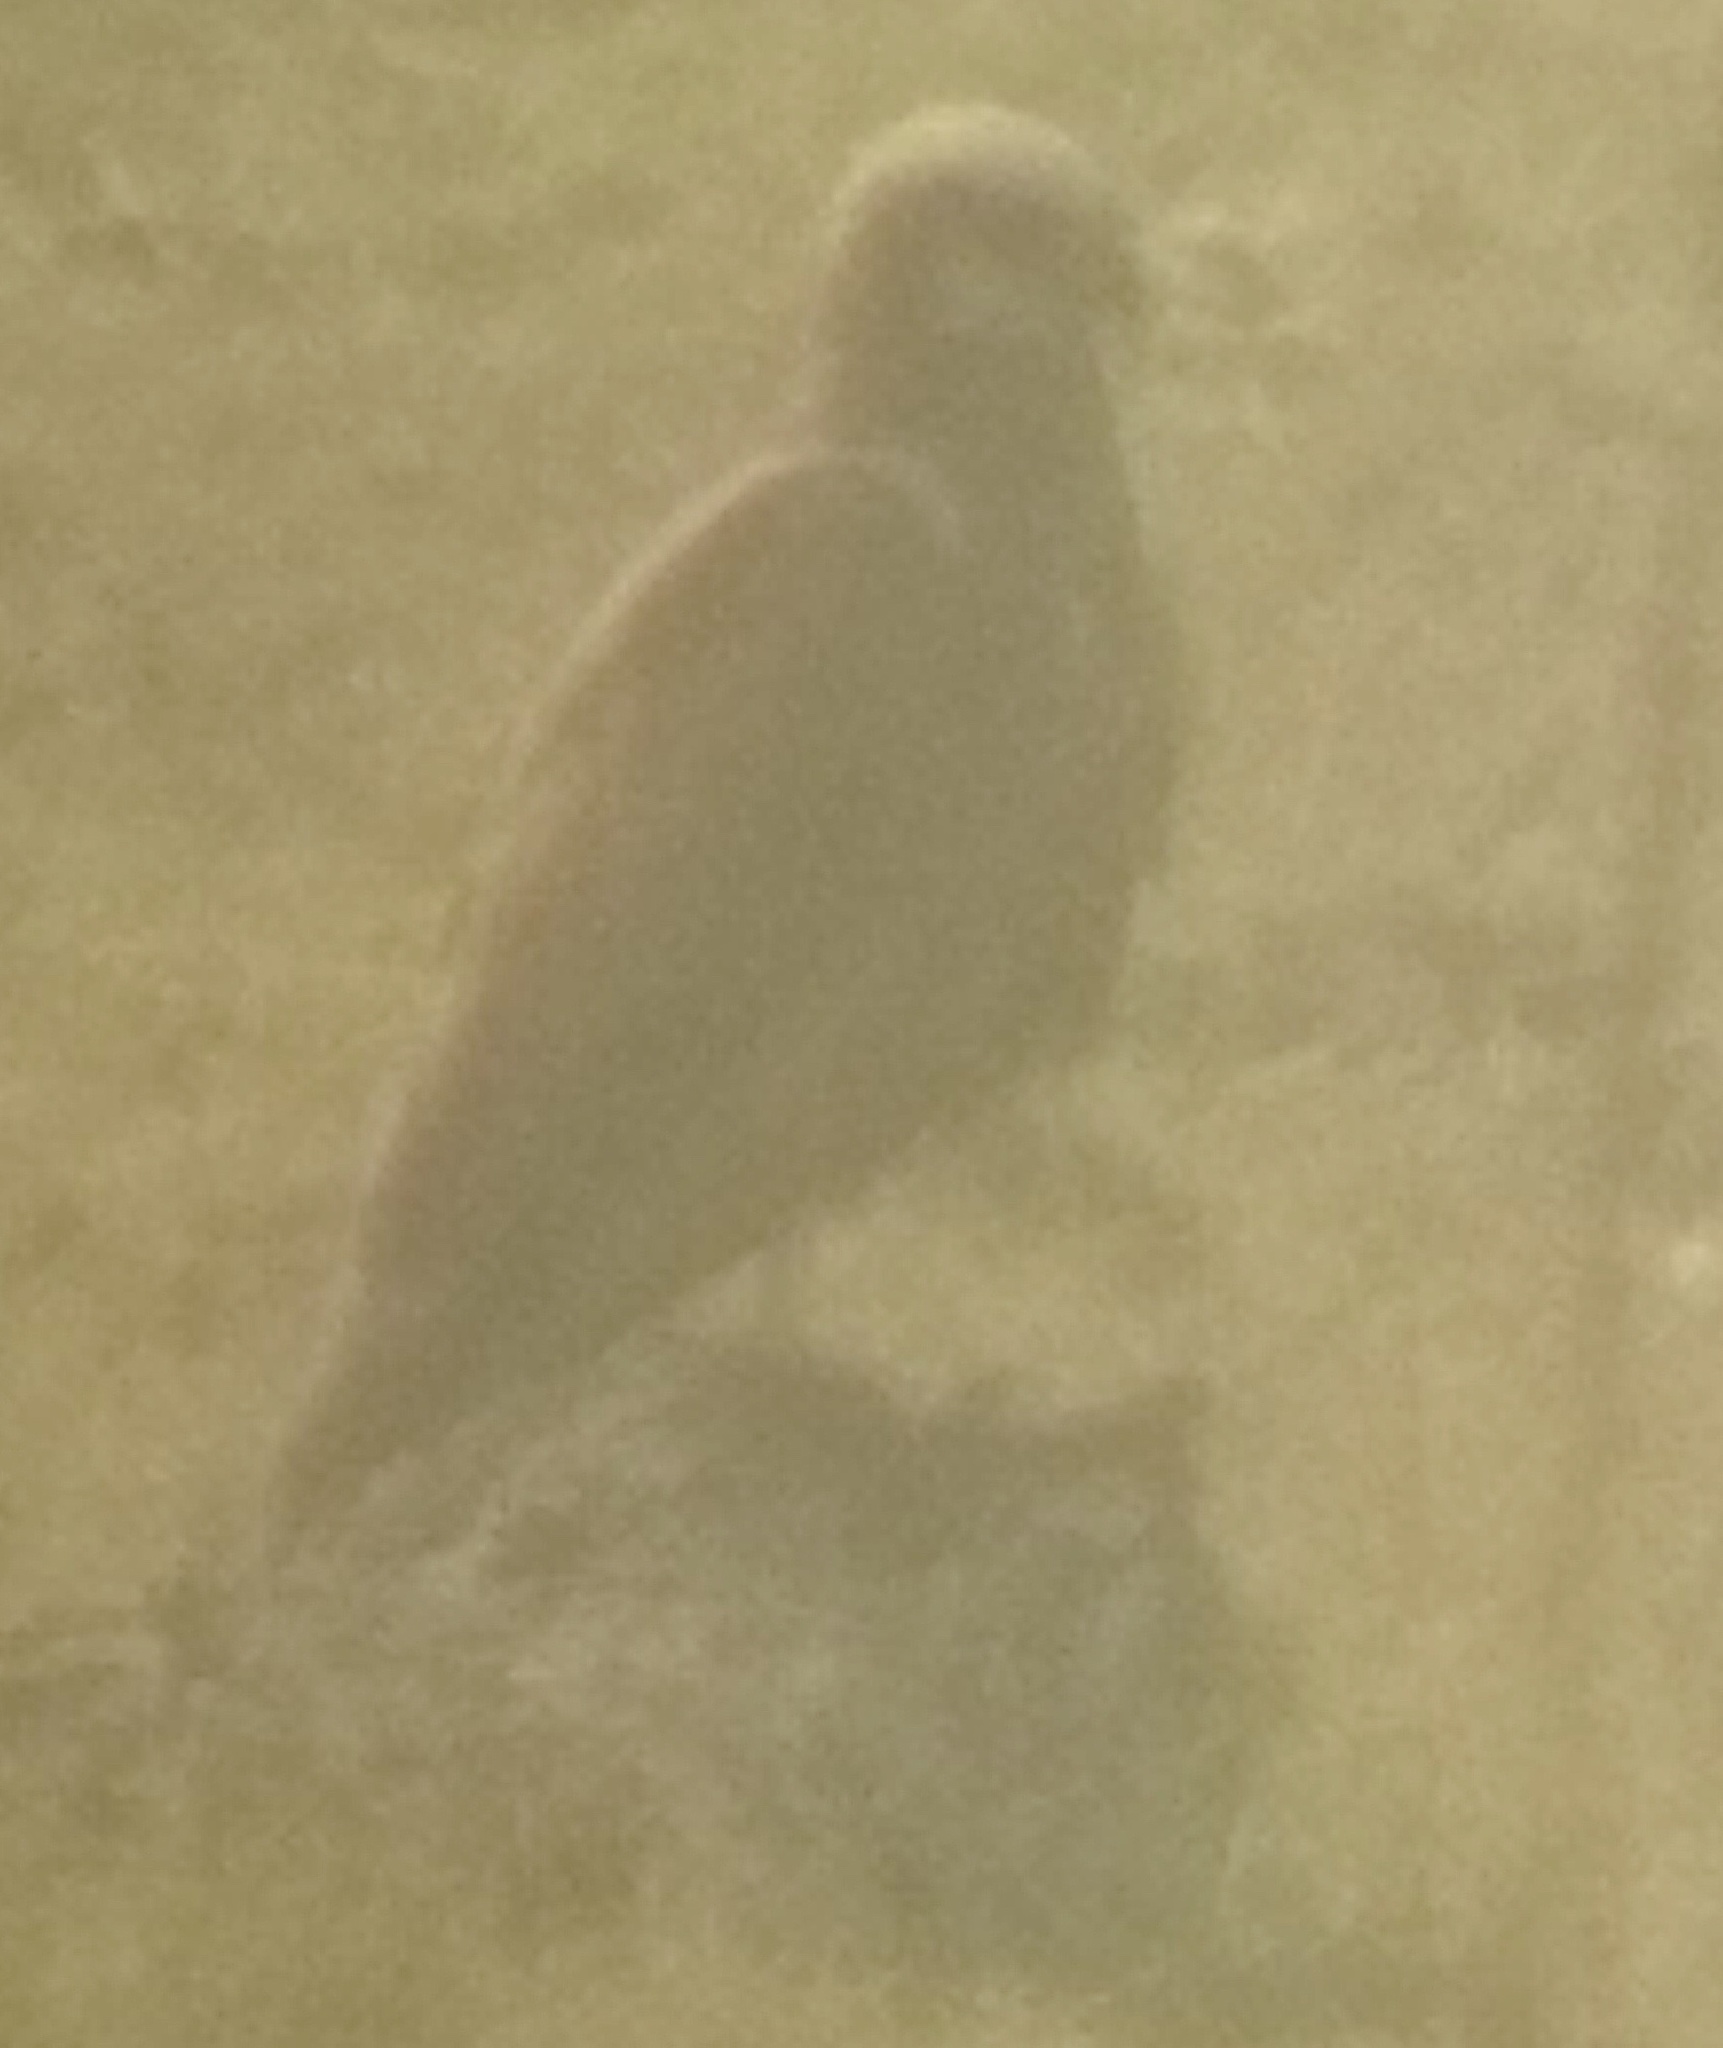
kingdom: Animalia
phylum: Chordata
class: Aves
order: Accipitriformes
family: Accipitridae
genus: Circus
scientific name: Circus aeruginosus
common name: Western marsh harrier
